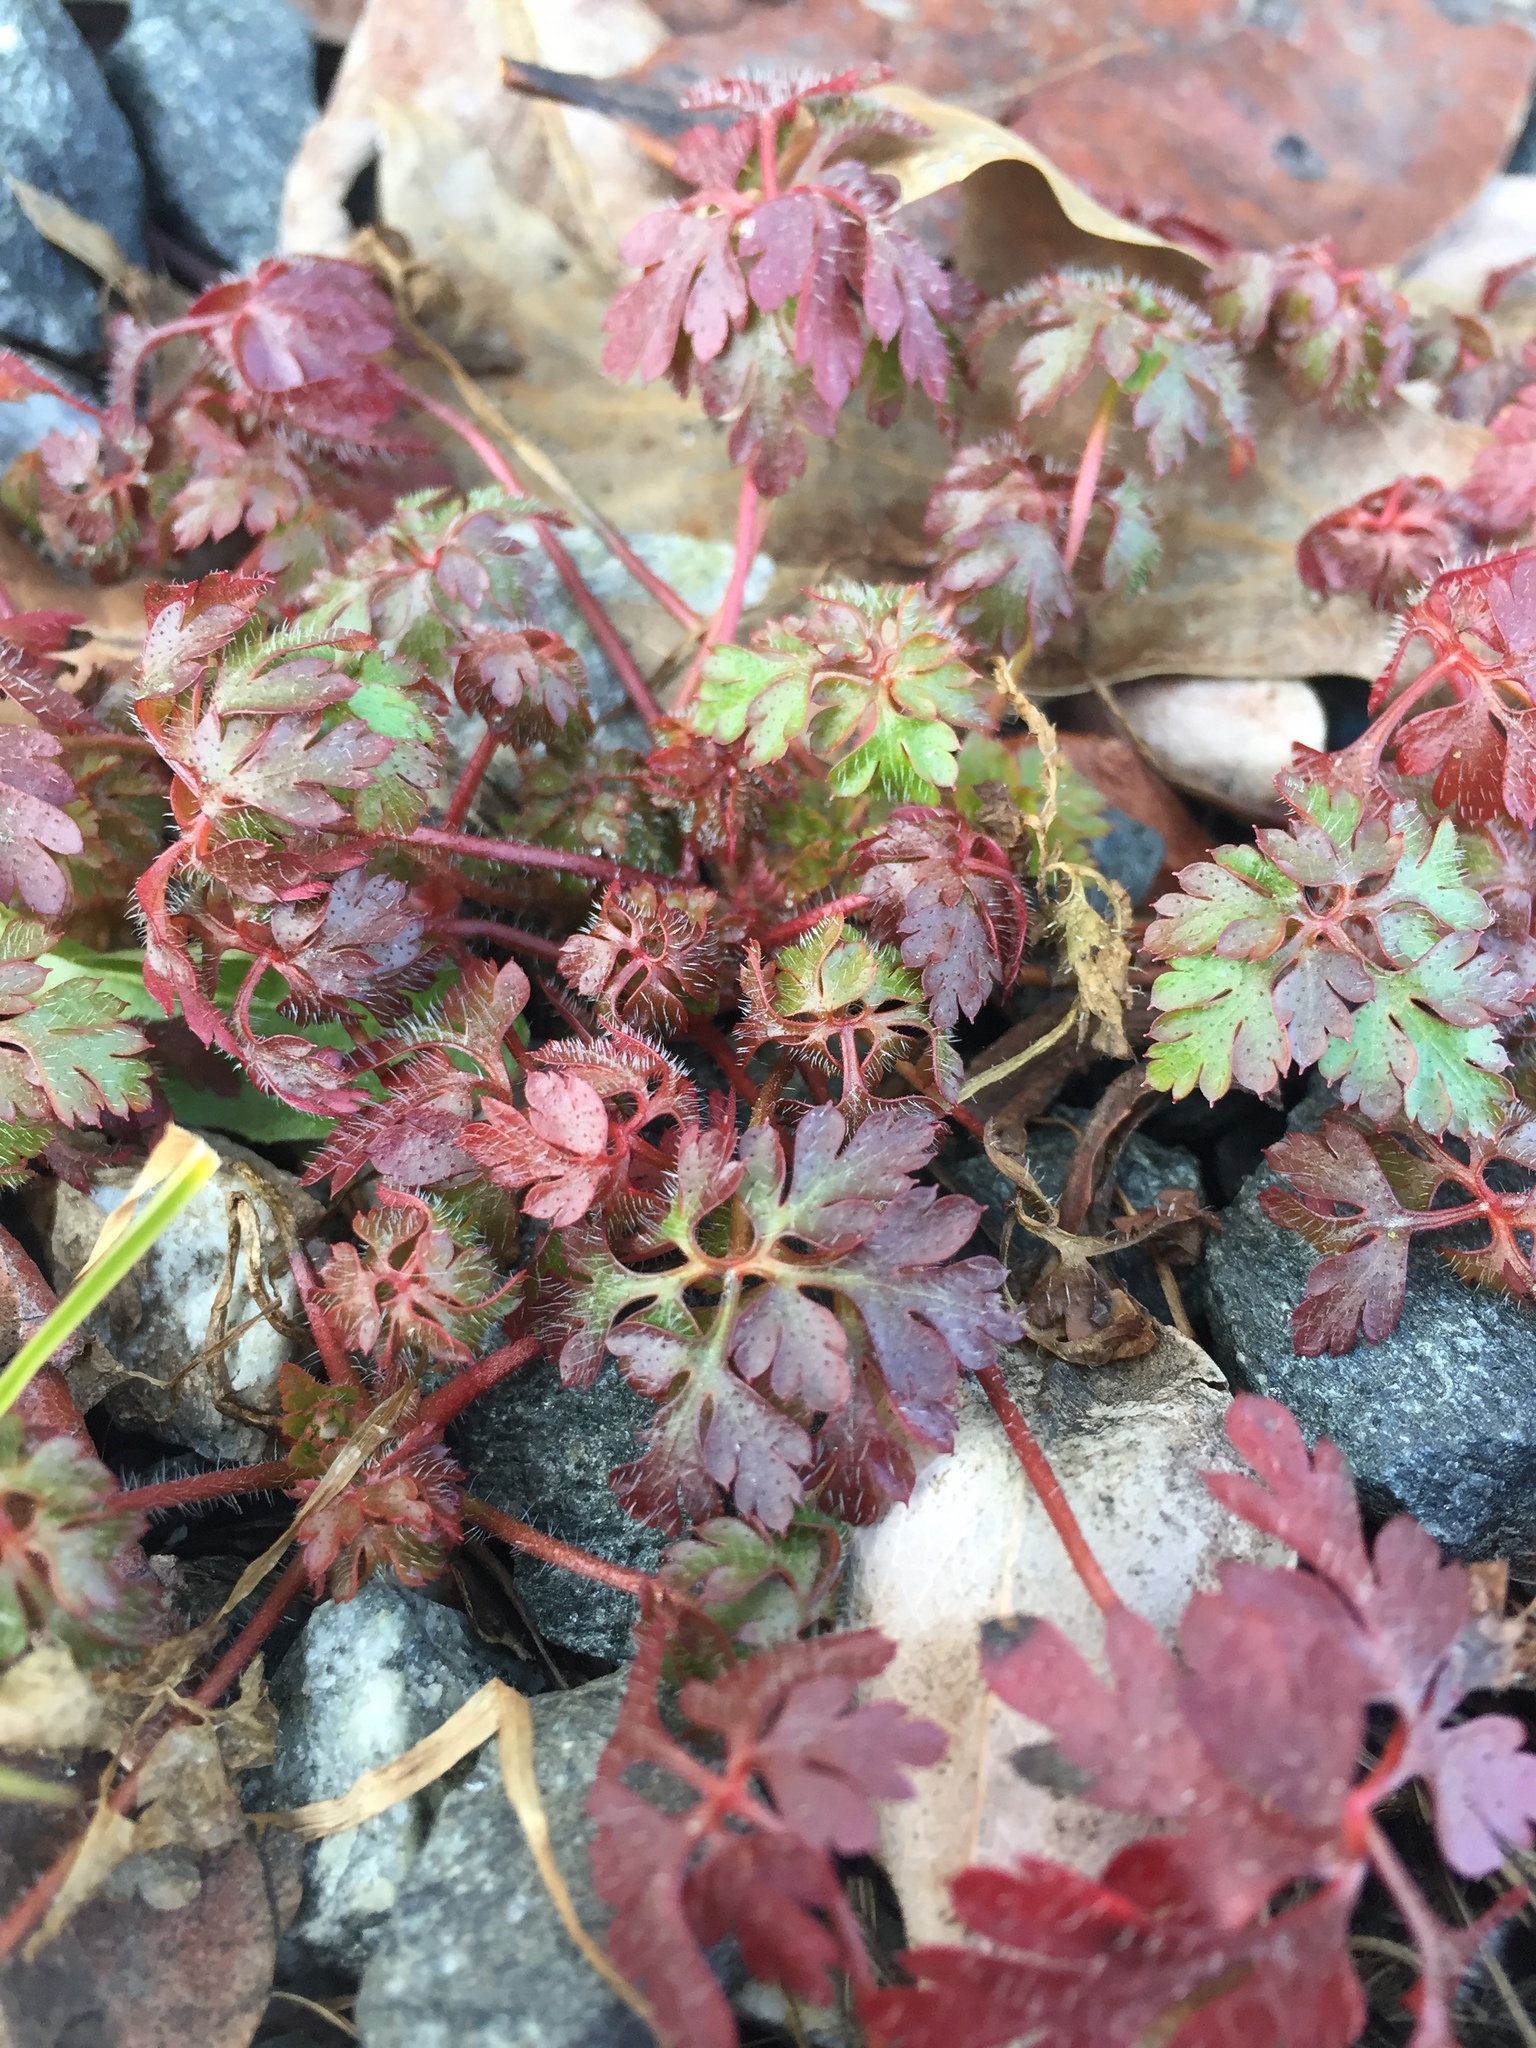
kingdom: Plantae
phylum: Tracheophyta
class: Magnoliopsida
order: Geraniales
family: Geraniaceae
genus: Geranium
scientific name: Geranium robertianum
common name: Herb-robert
